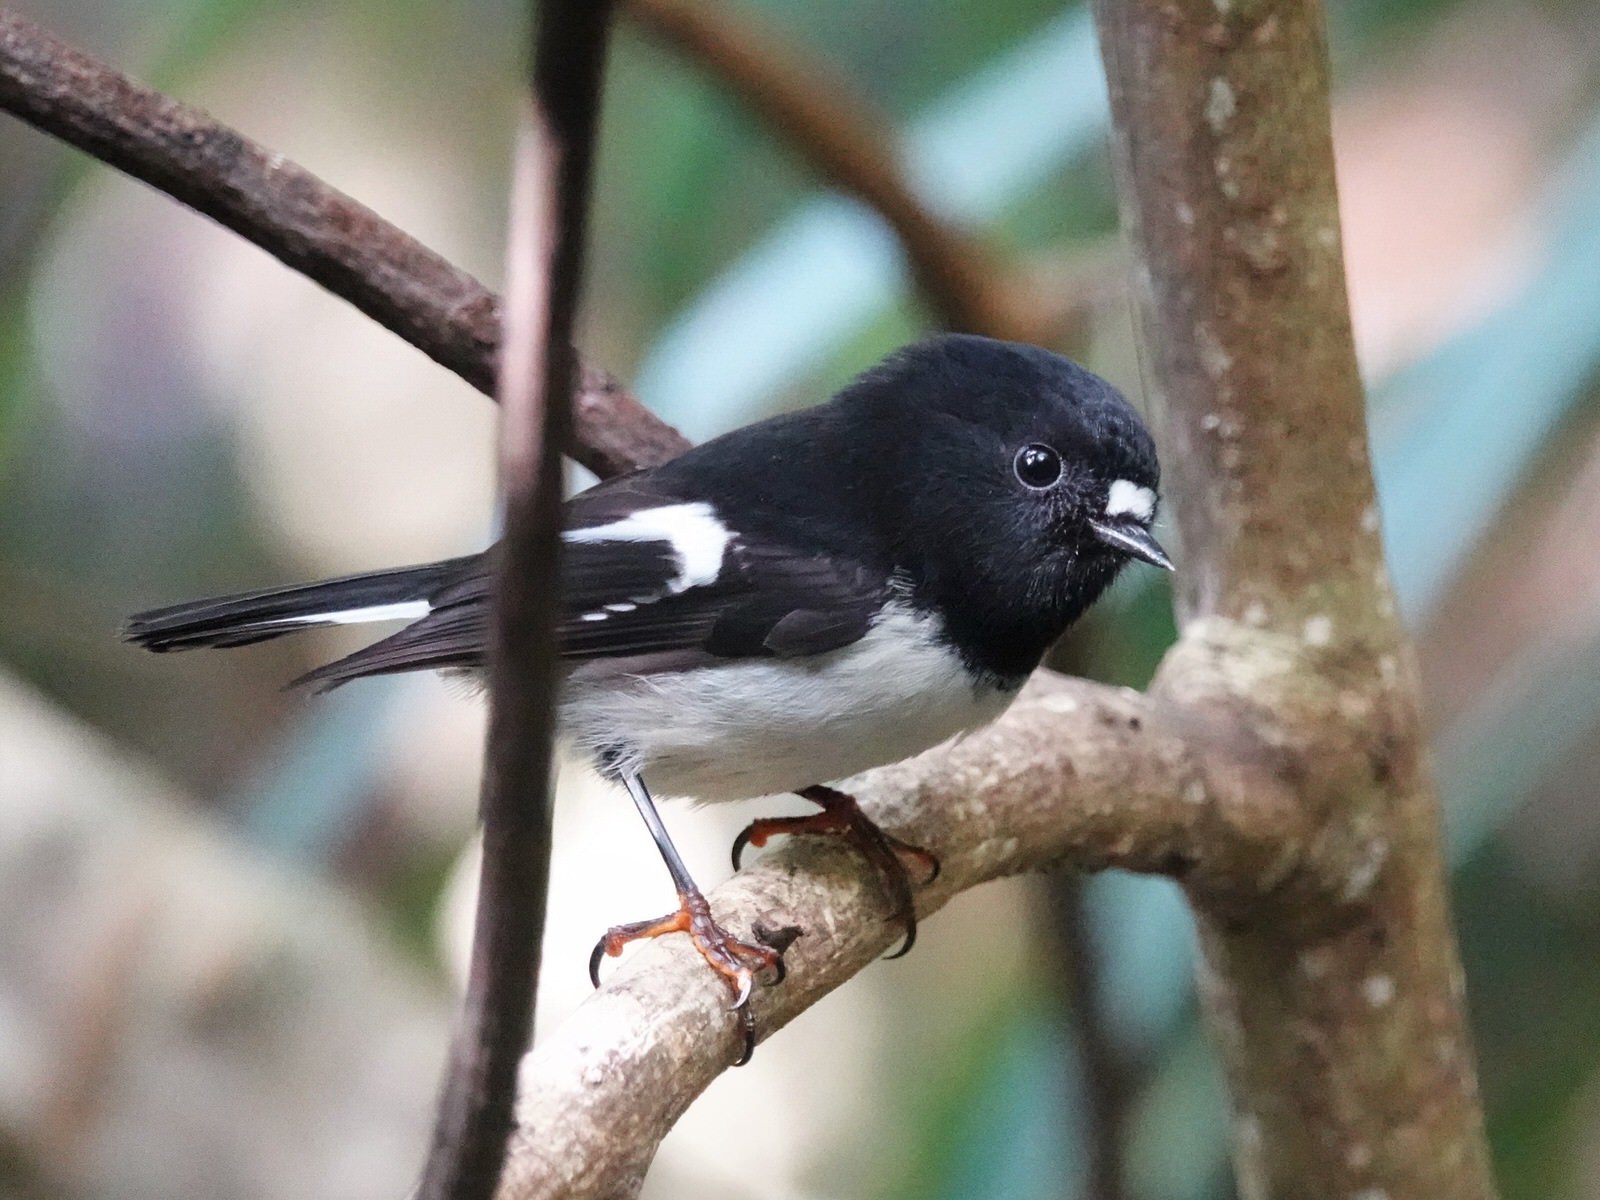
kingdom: Animalia
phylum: Chordata
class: Aves
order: Passeriformes
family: Petroicidae
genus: Petroica
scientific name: Petroica macrocephala
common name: Tomtit
